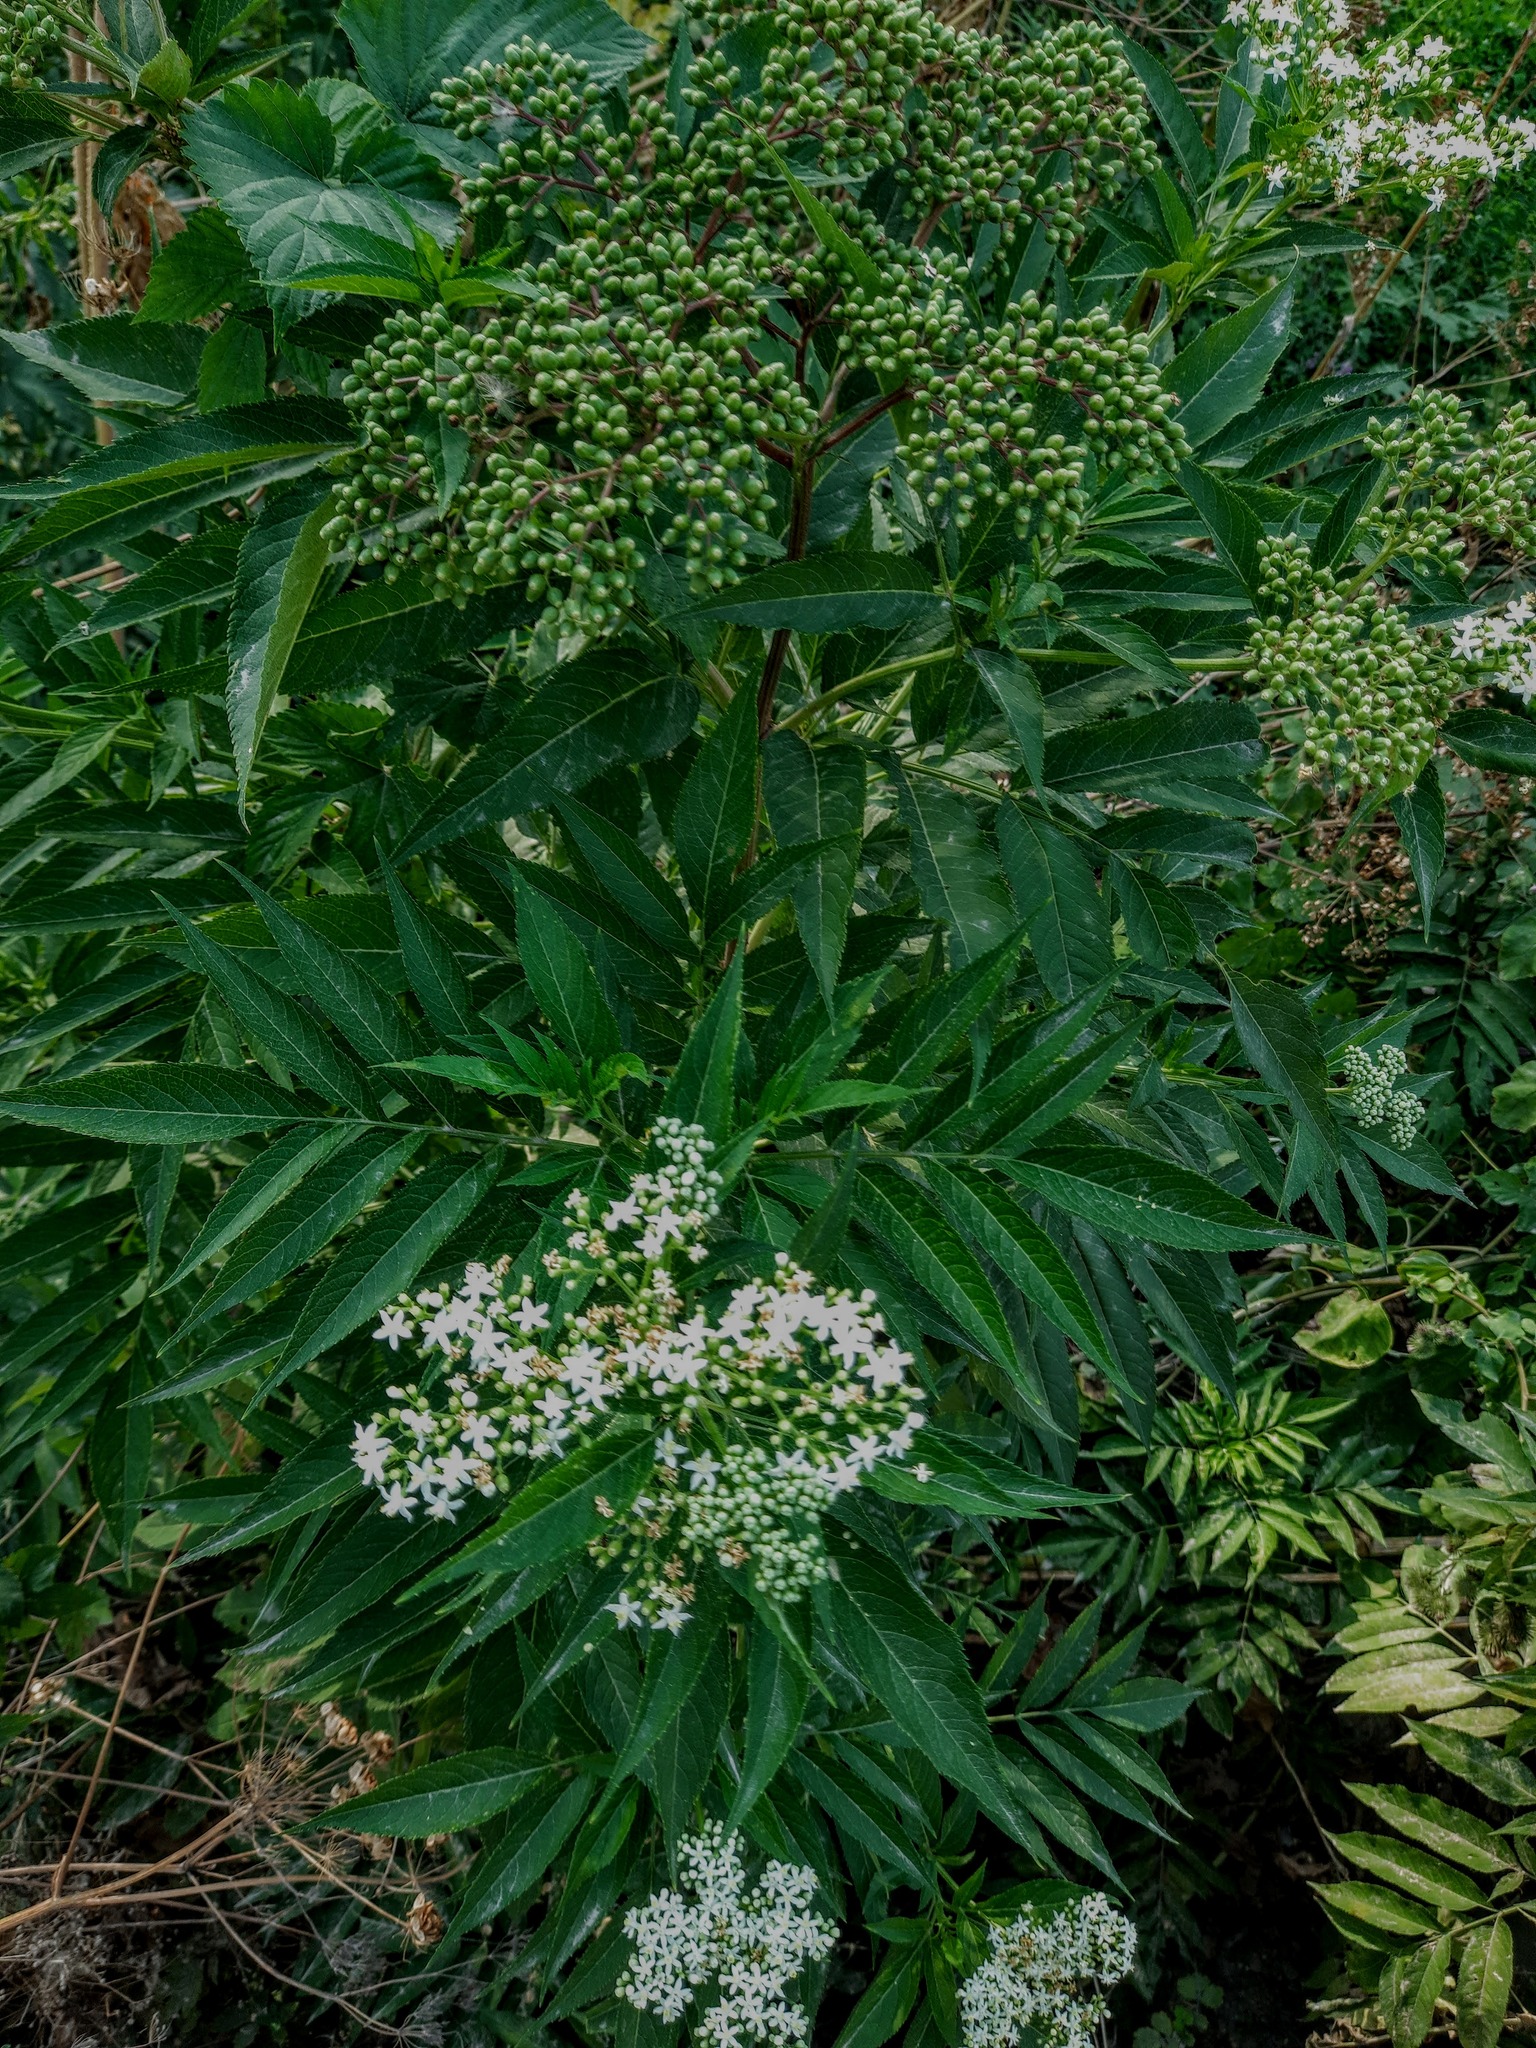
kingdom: Plantae
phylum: Tracheophyta
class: Magnoliopsida
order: Dipsacales
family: Viburnaceae
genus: Sambucus
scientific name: Sambucus ebulus
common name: Dwarf elder
